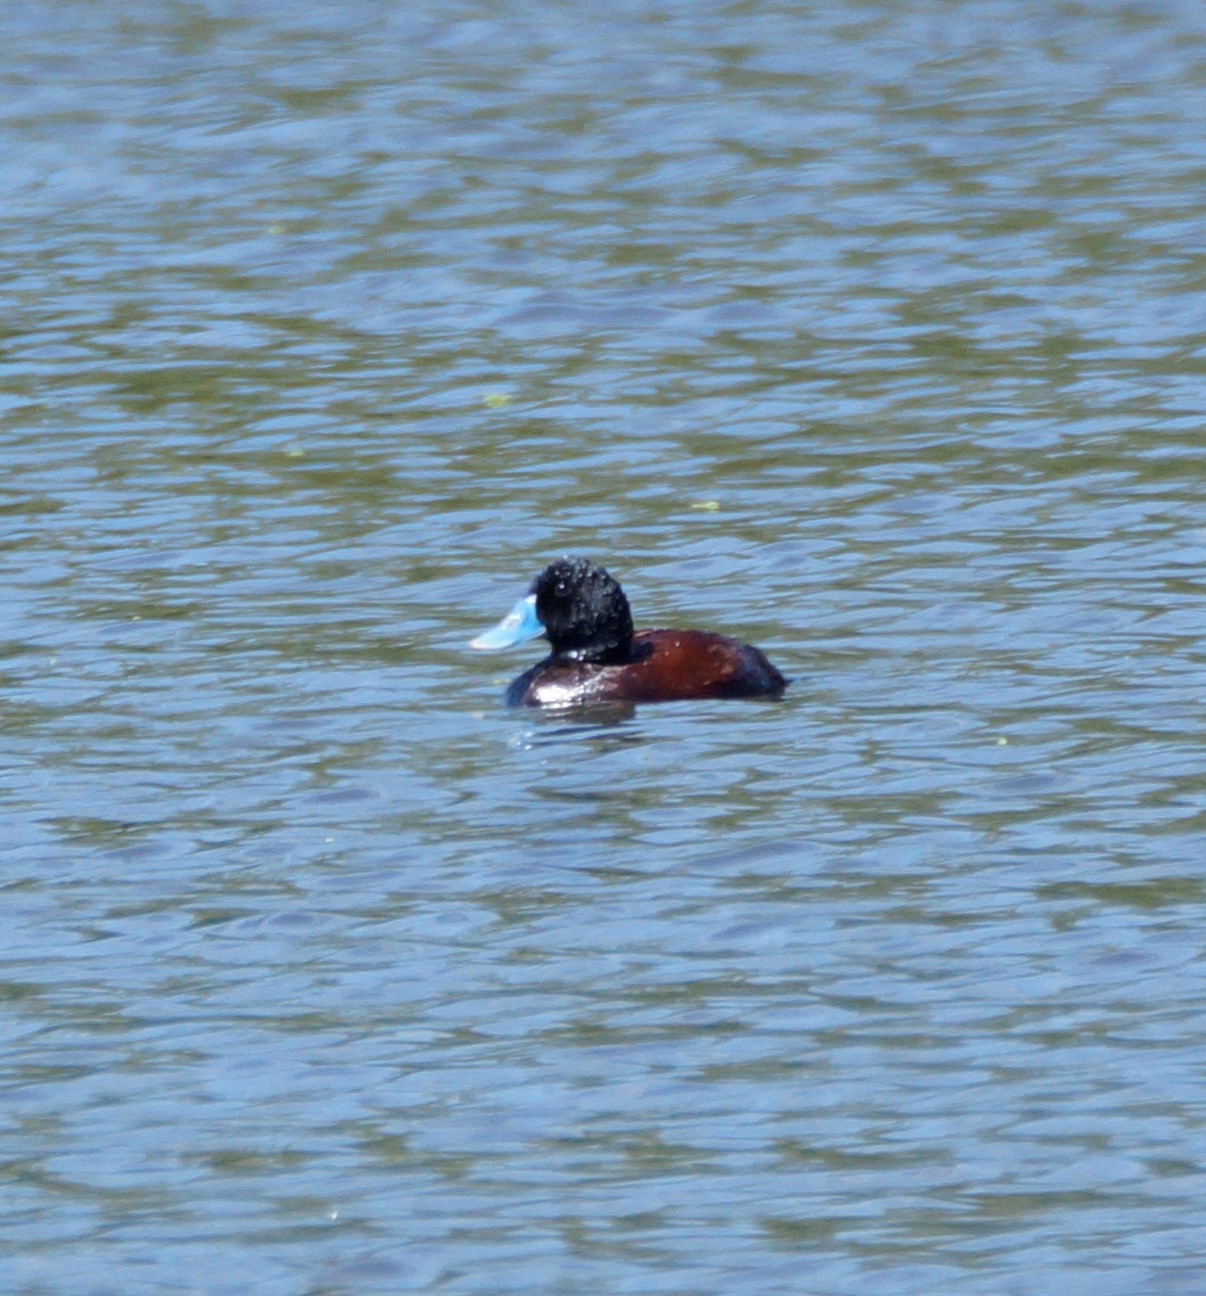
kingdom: Animalia
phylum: Chordata
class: Aves
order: Anseriformes
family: Anatidae
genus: Oxyura
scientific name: Oxyura australis
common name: Blue-billed duck
